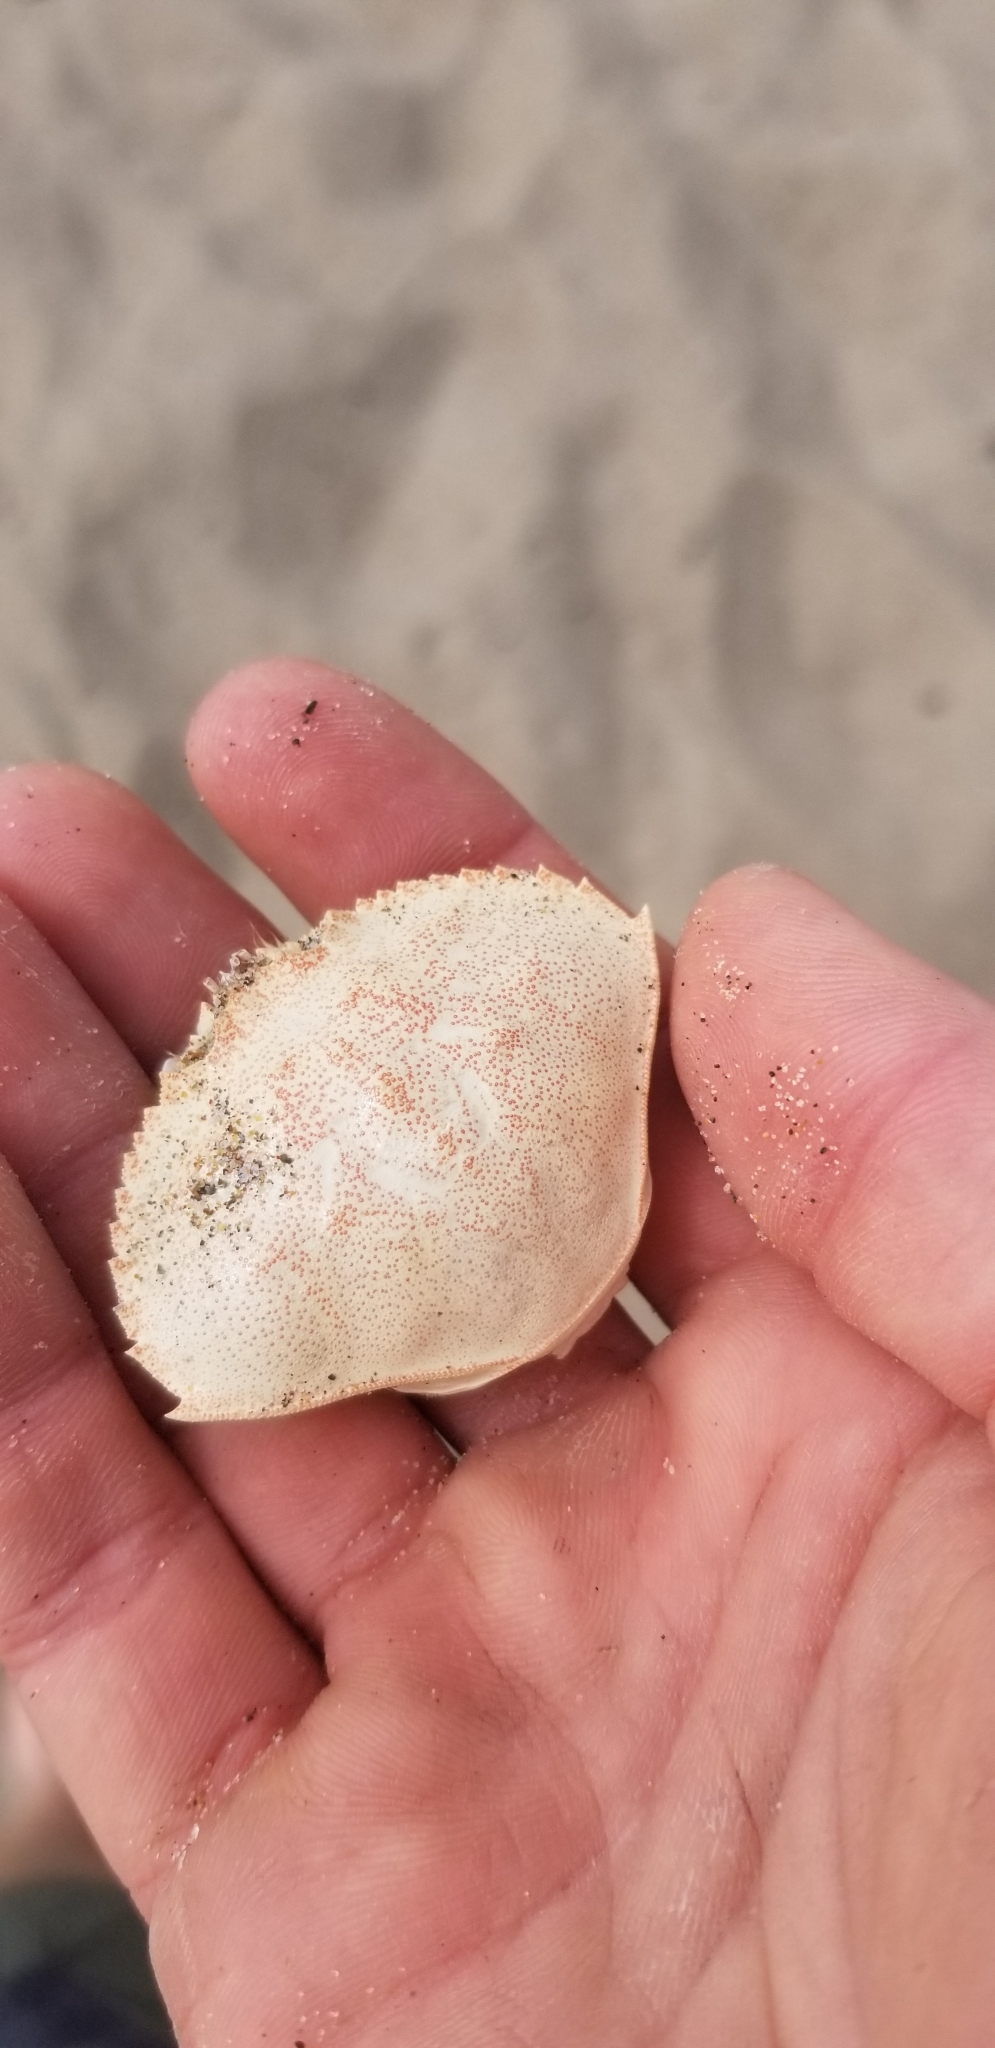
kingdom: Animalia
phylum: Arthropoda
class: Malacostraca
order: Decapoda
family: Cancridae
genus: Metacarcinus
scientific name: Metacarcinus magister
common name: Californian crab
